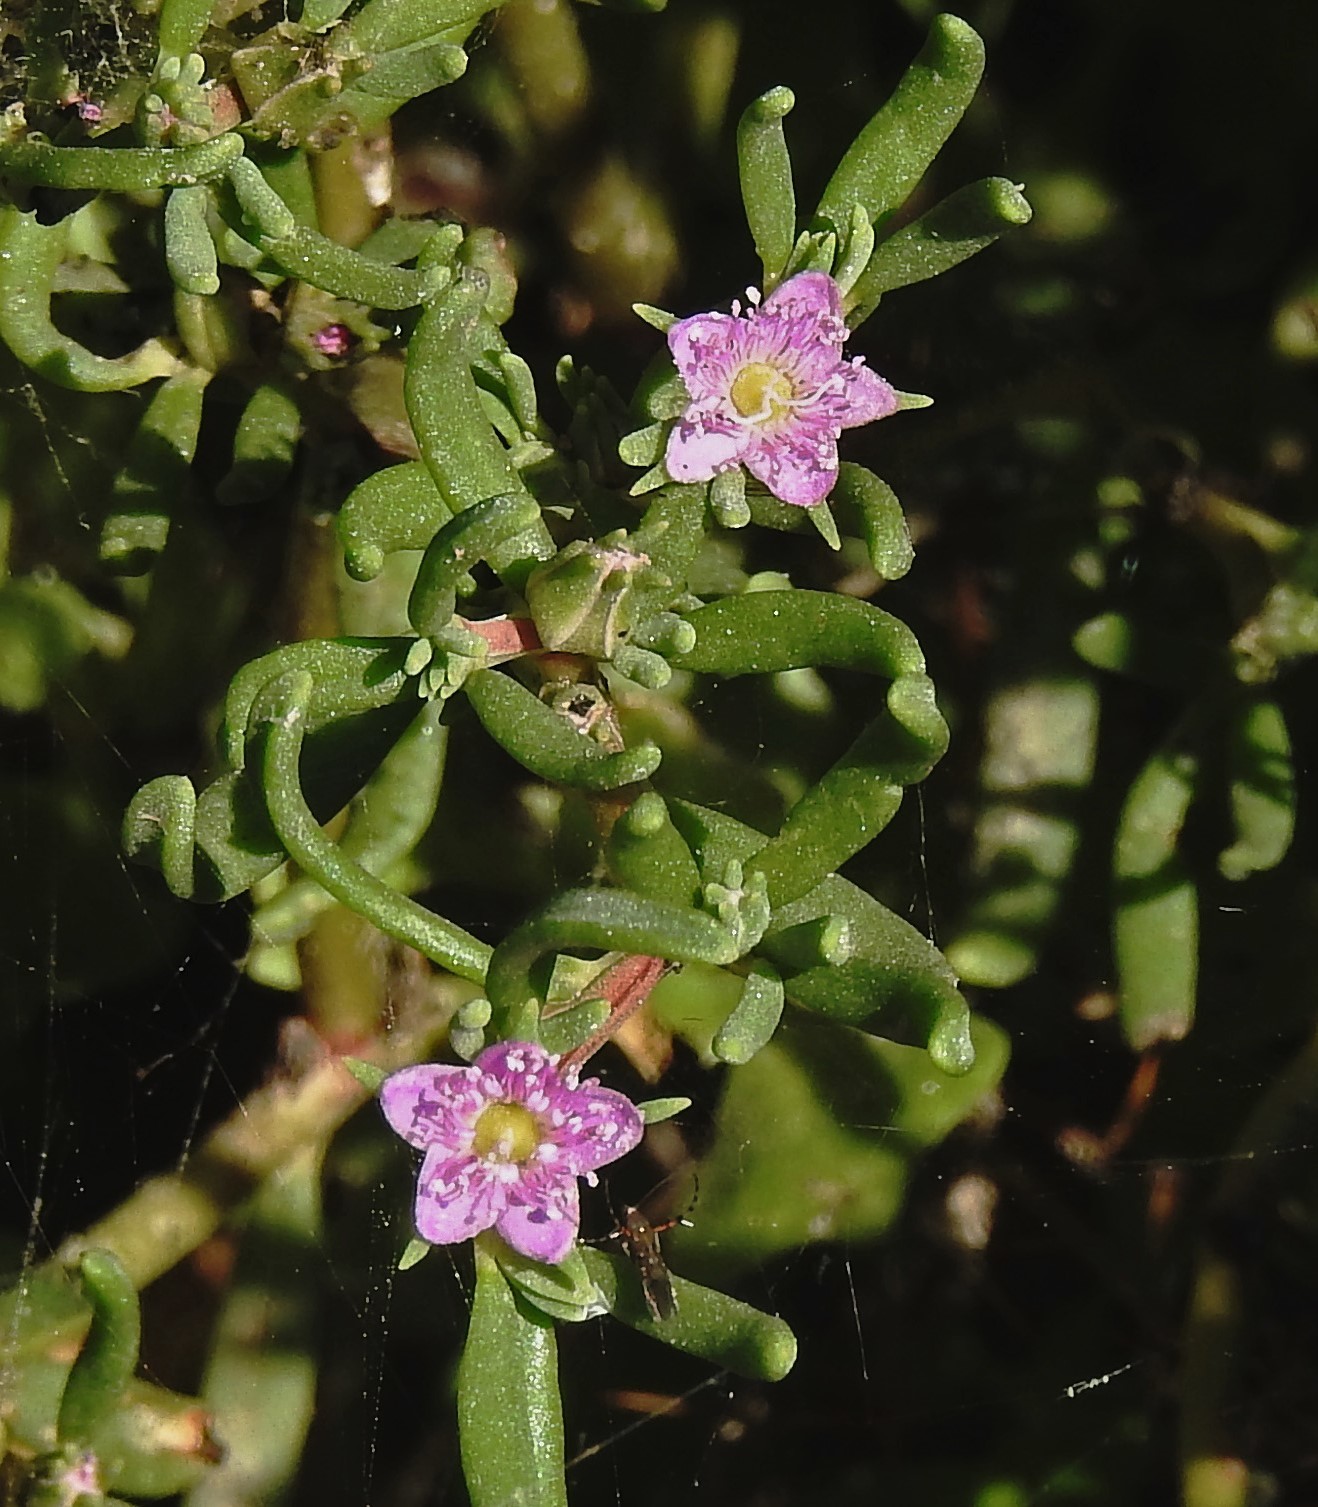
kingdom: Plantae
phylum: Tracheophyta
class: Magnoliopsida
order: Caryophyllales
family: Aizoaceae
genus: Sesuvium
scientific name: Sesuvium portulacastrum
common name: Sea-purslane
